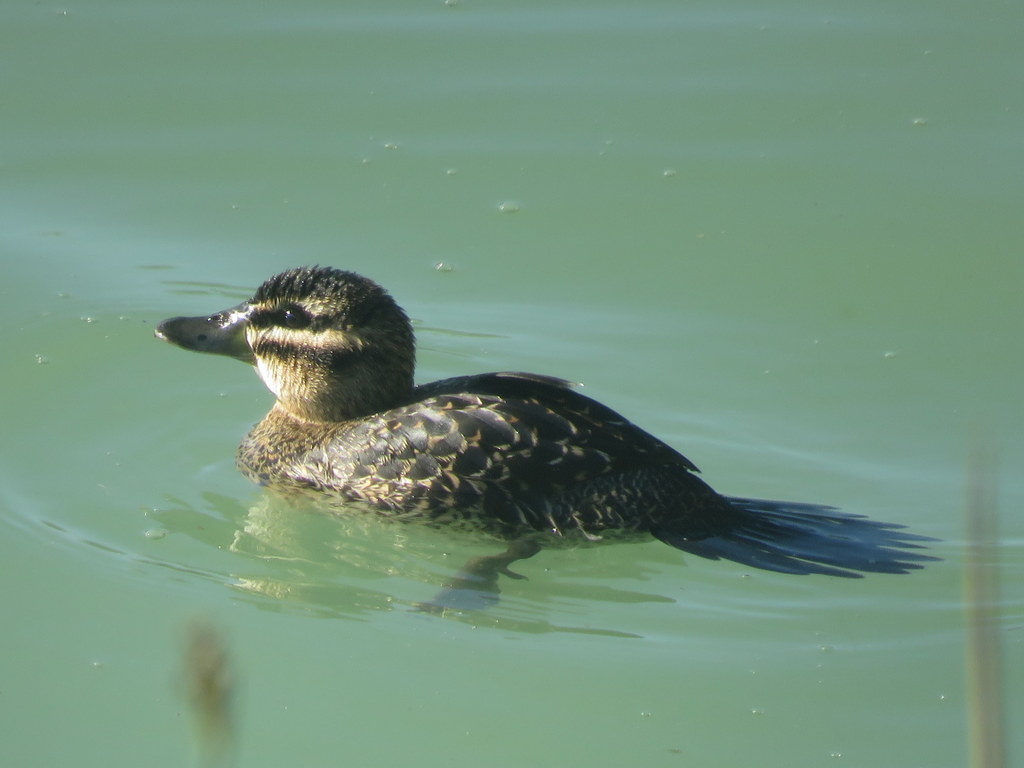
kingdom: Animalia
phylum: Chordata
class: Aves
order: Anseriformes
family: Anatidae
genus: Nomonyx
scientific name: Nomonyx dominicus
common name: Masked duck
